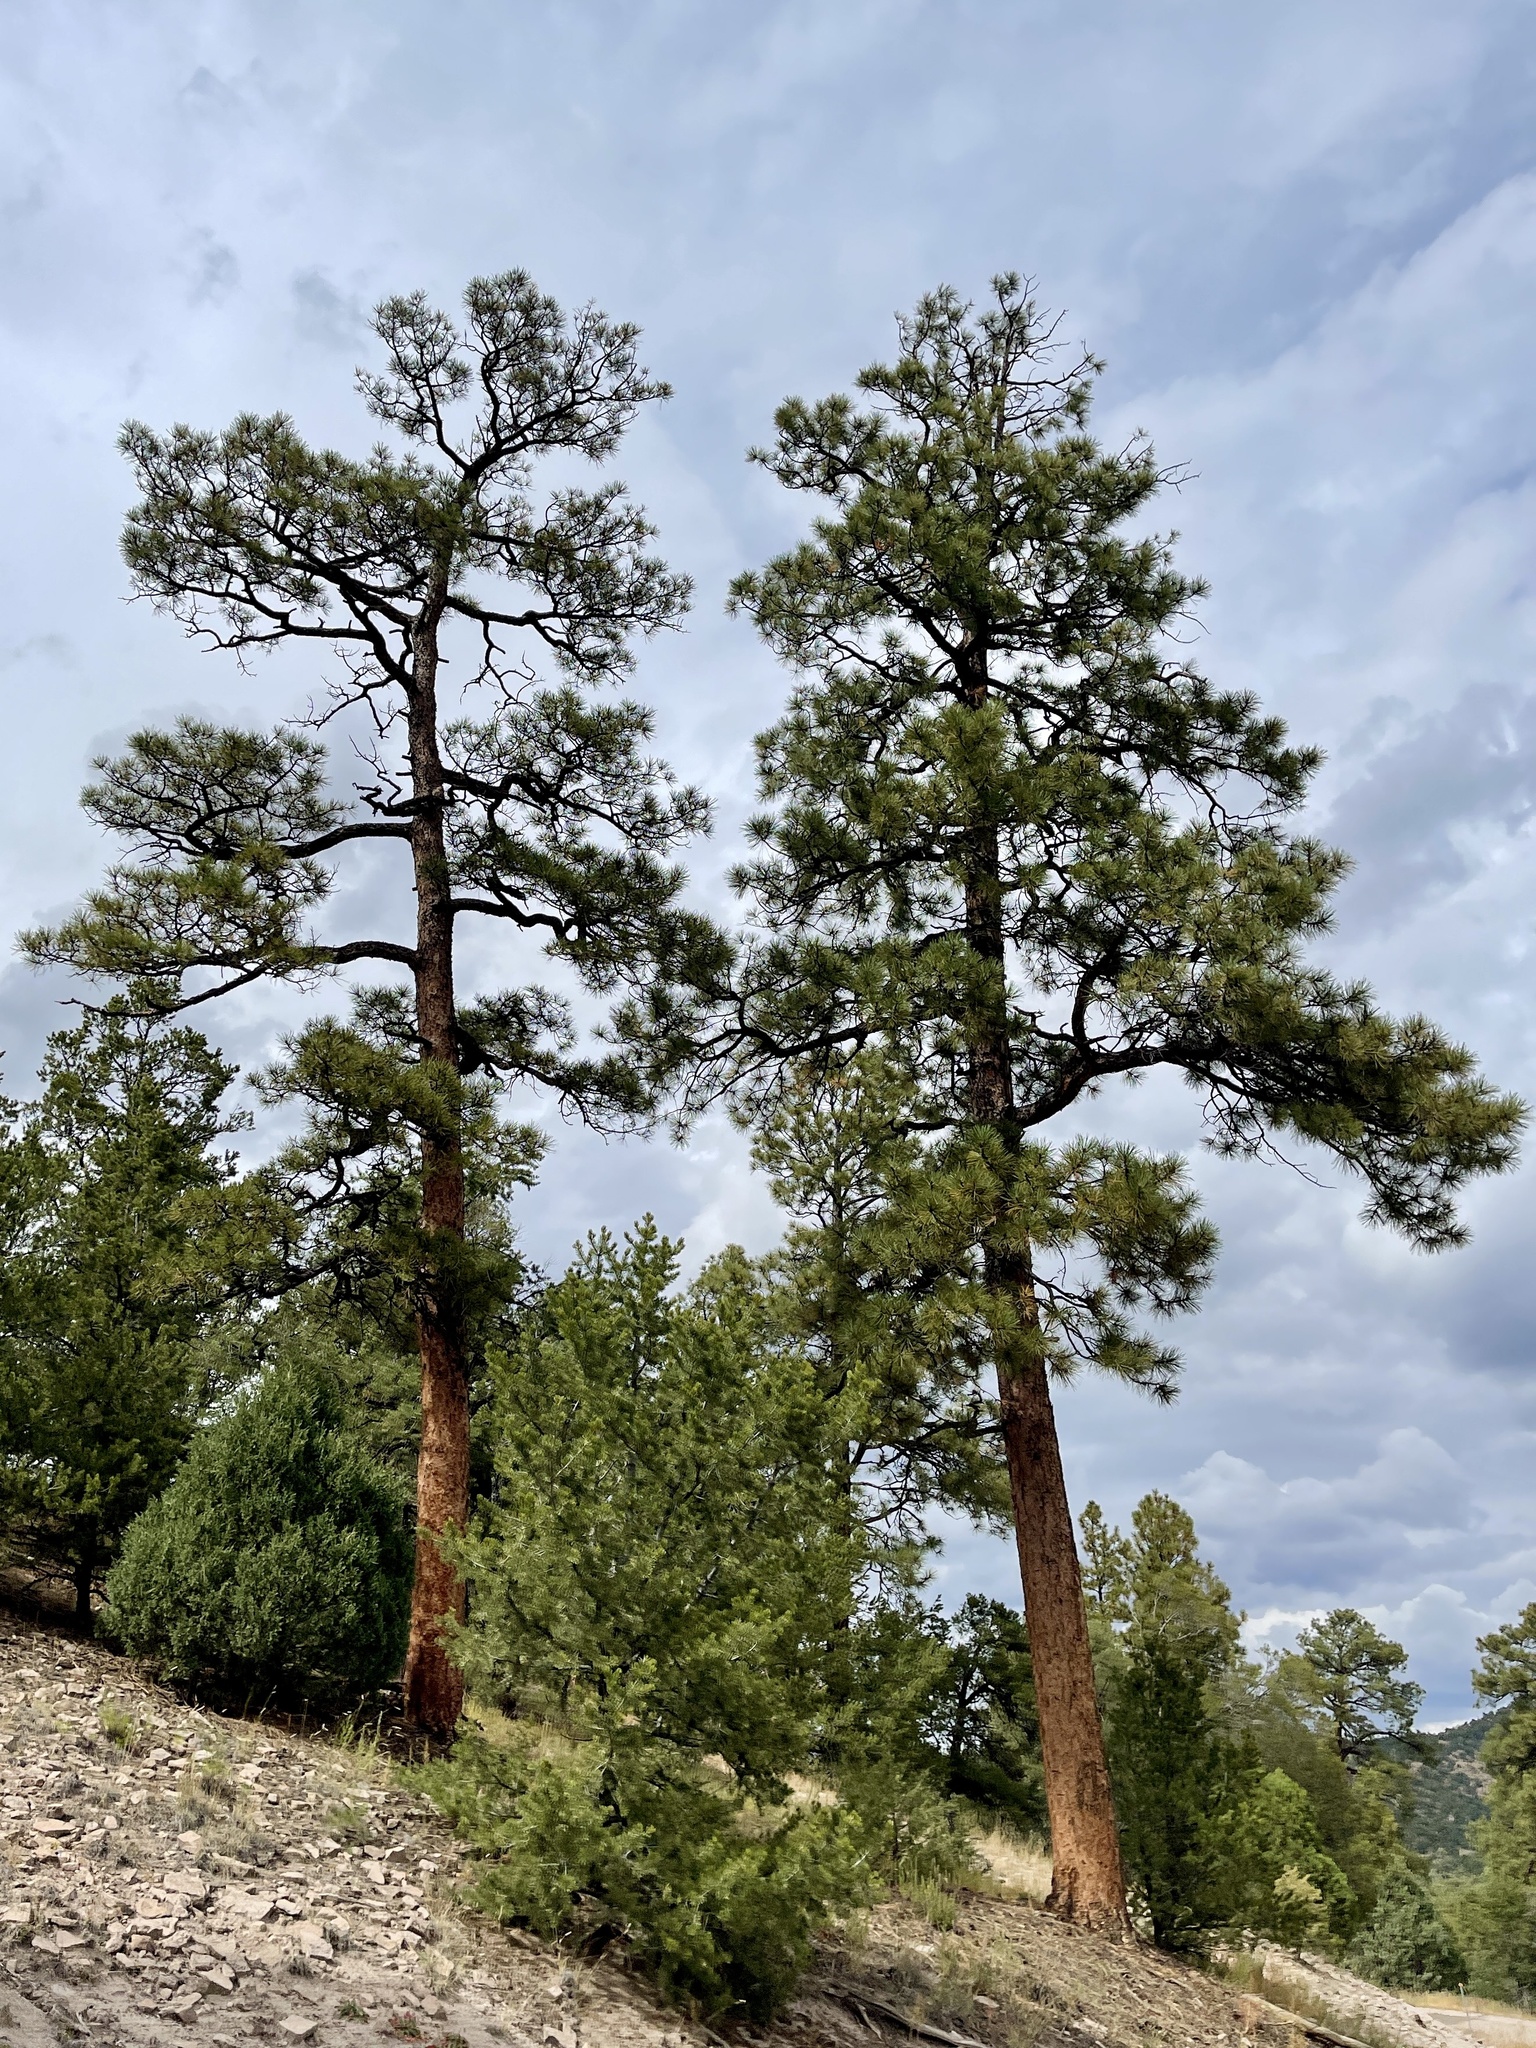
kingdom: Plantae
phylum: Tracheophyta
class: Pinopsida
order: Pinales
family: Pinaceae
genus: Pinus
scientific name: Pinus ponderosa
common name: Western yellow-pine
